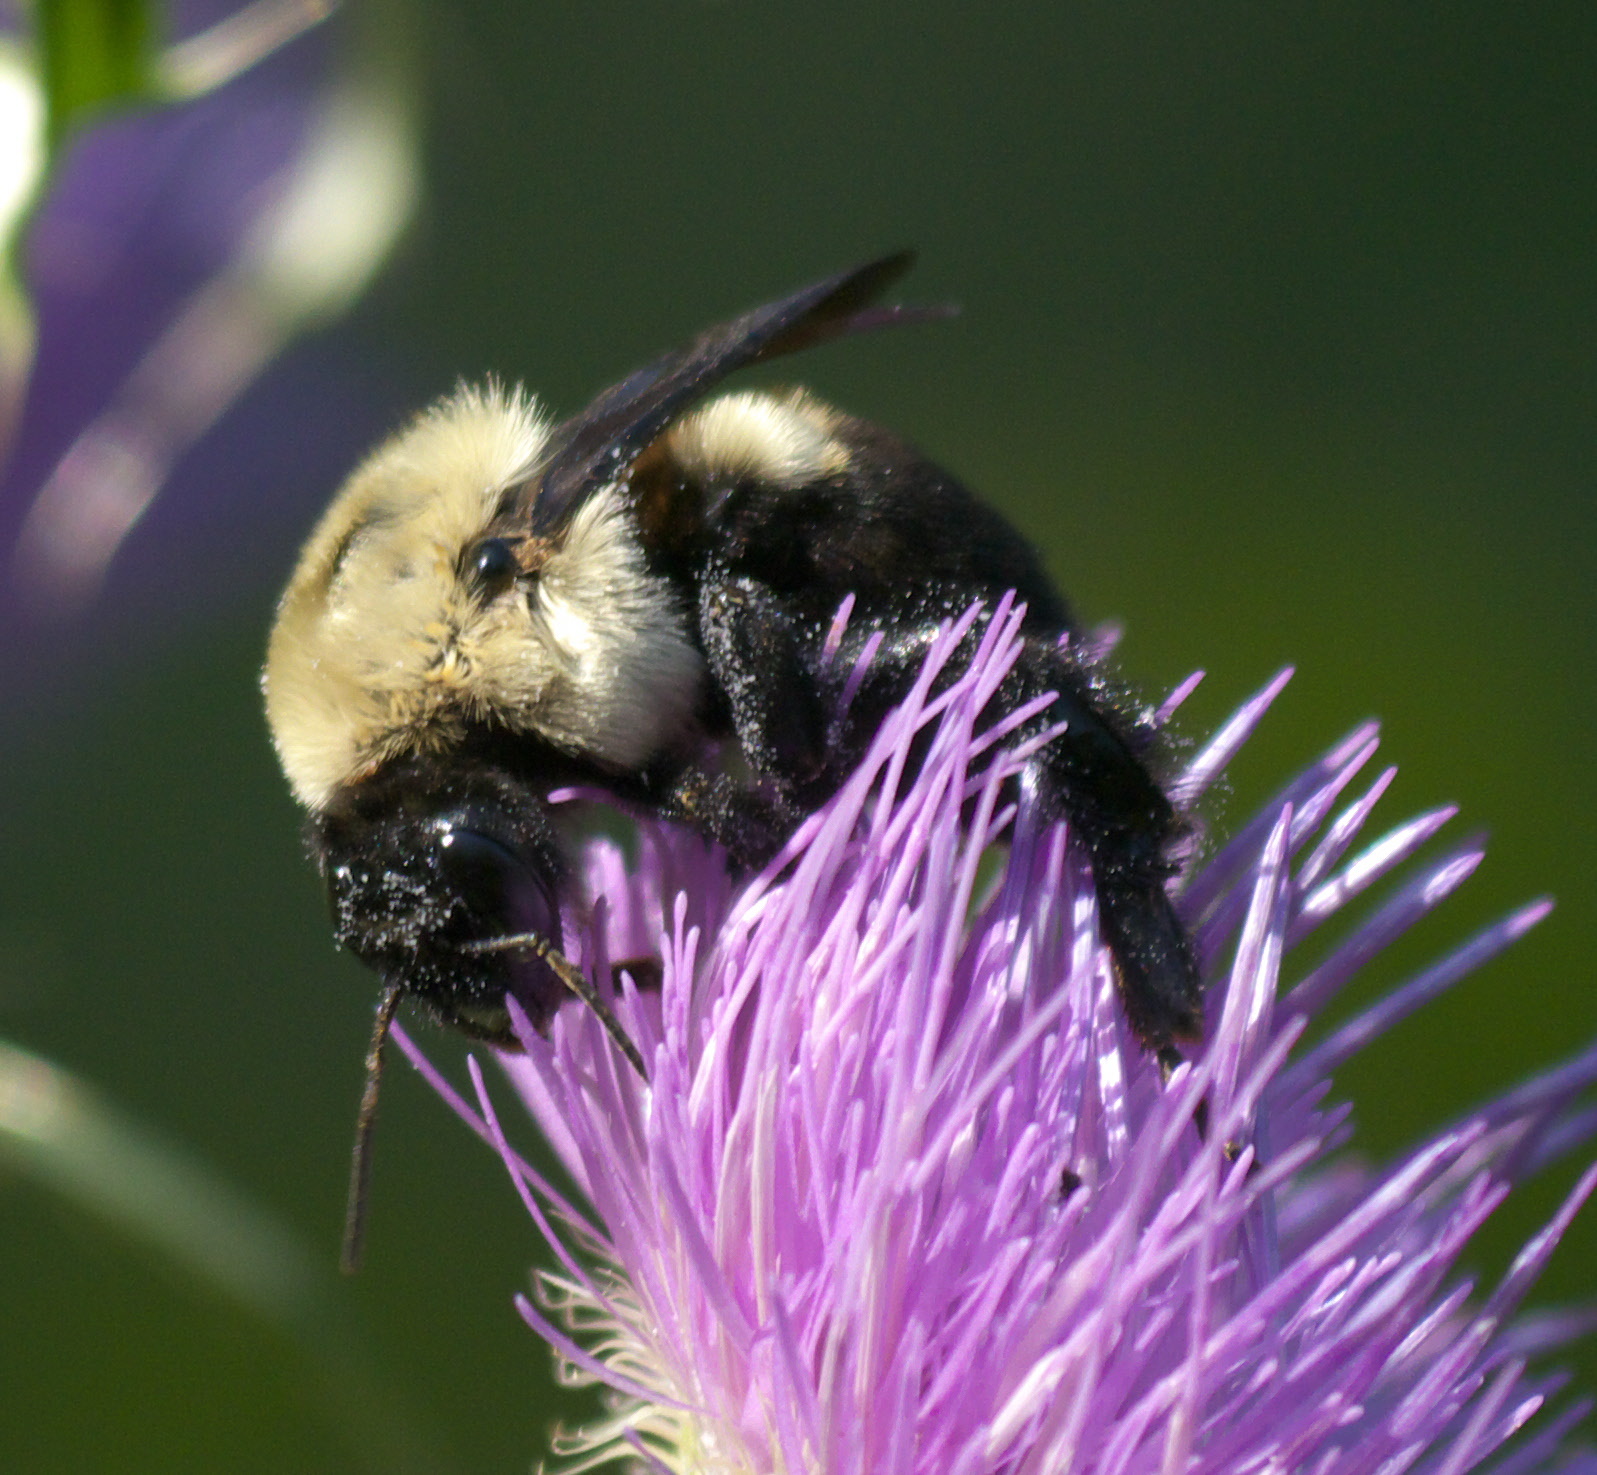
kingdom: Animalia
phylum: Arthropoda
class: Insecta
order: Hymenoptera
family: Apidae
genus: Bombus
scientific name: Bombus griseocollis
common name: Brown-belted bumble bee
